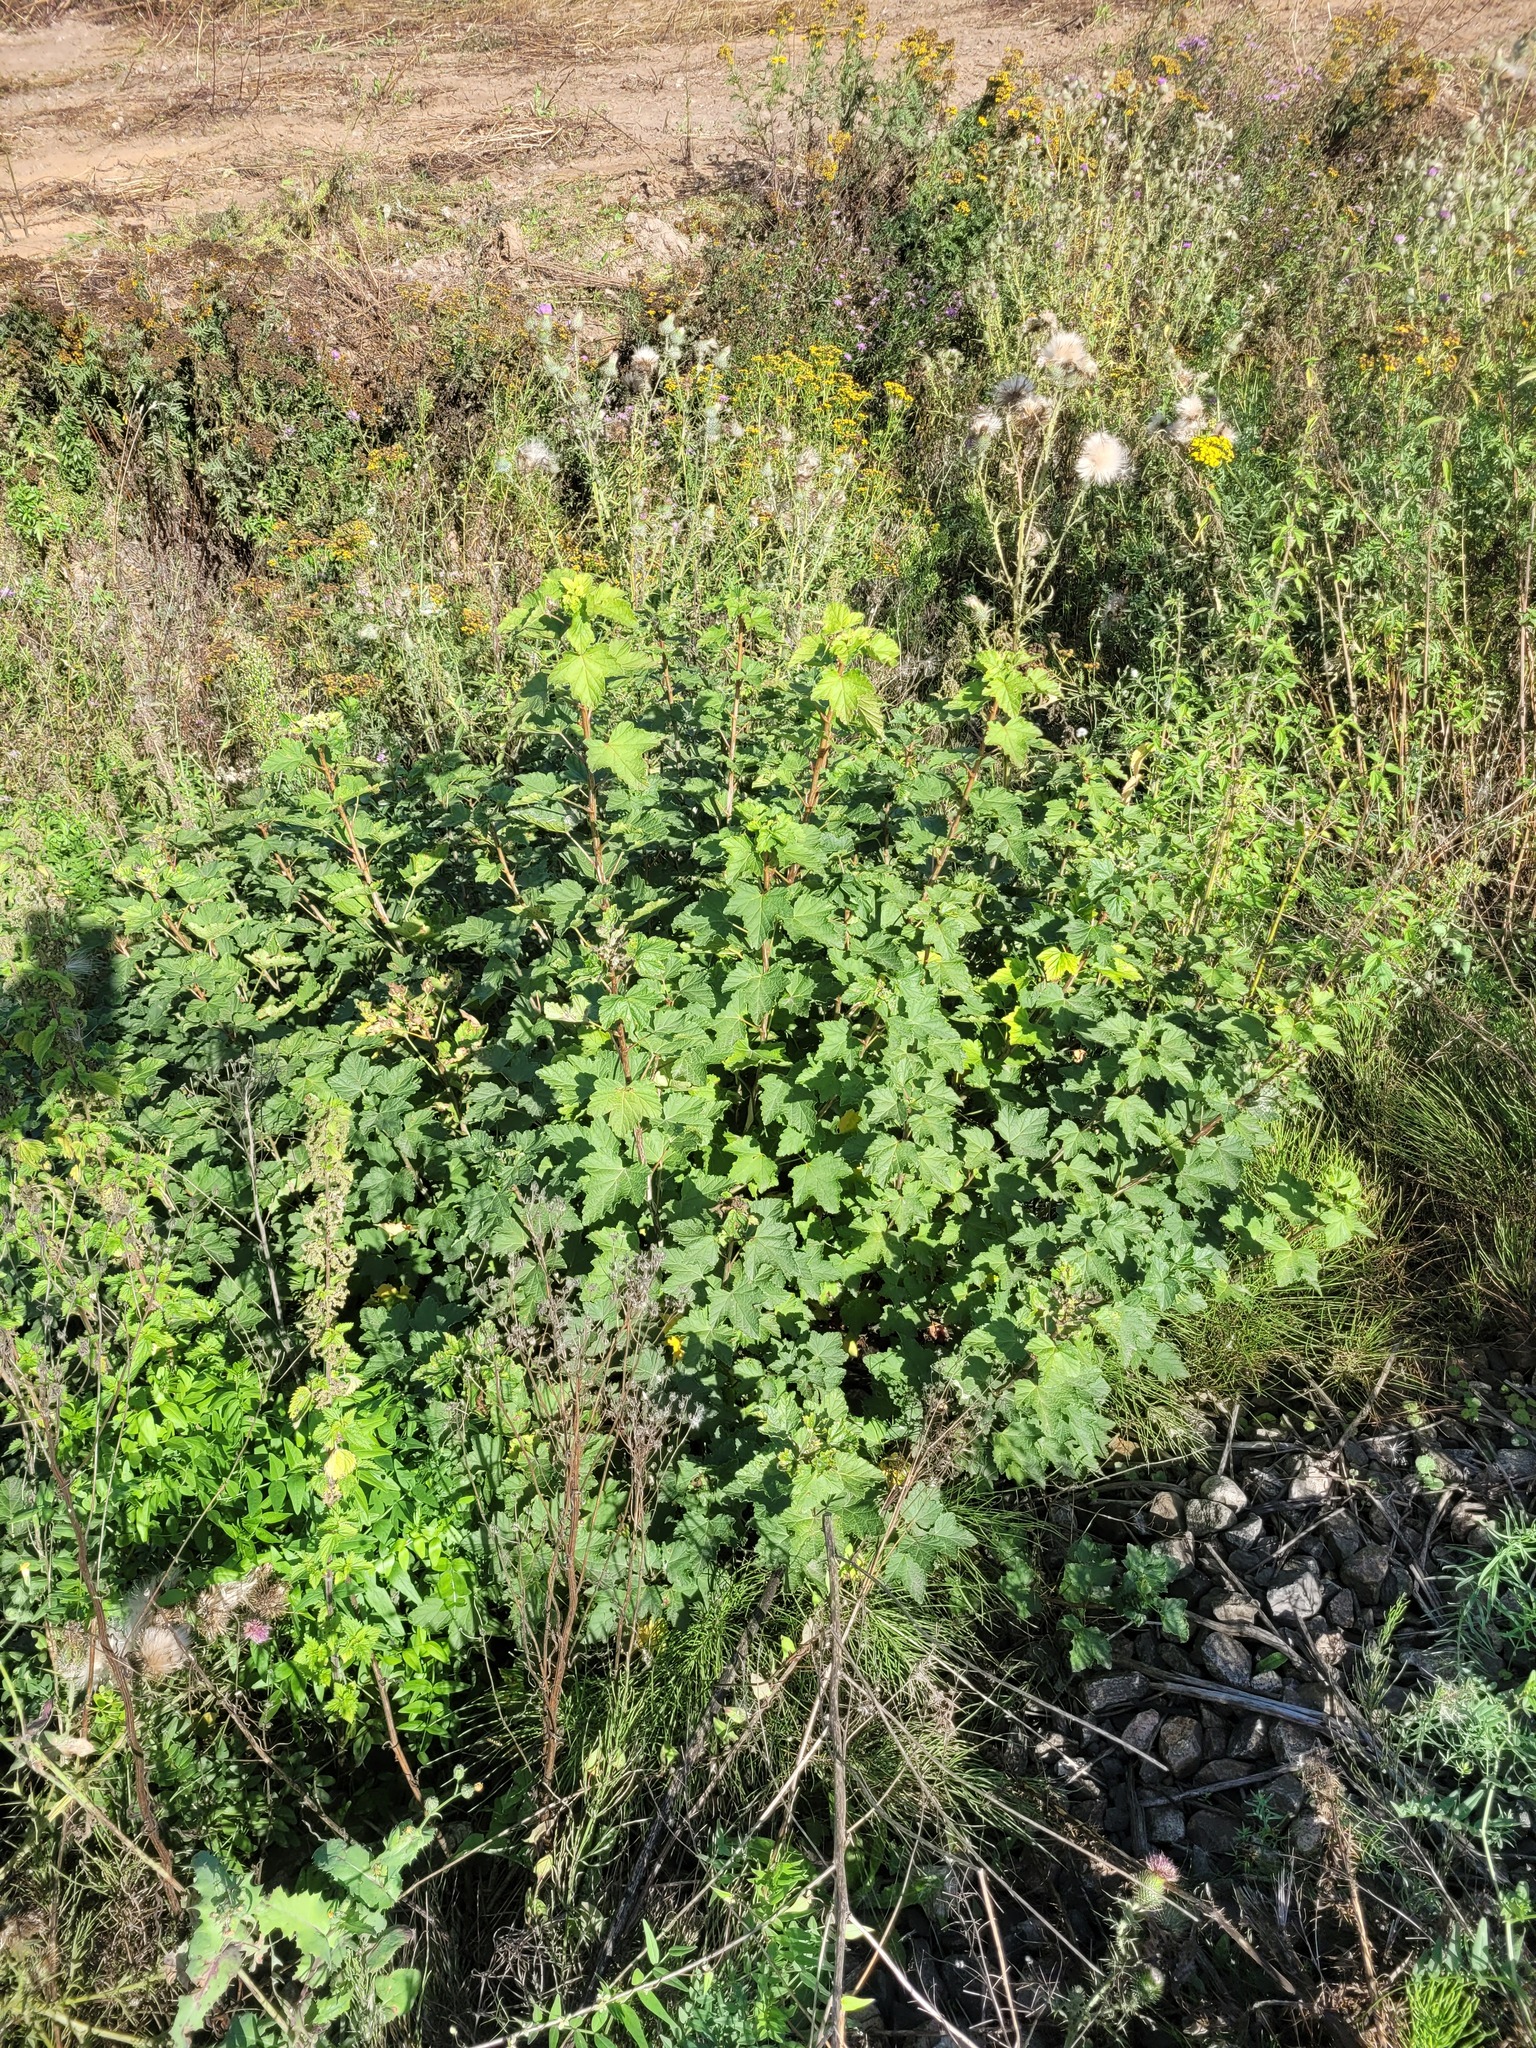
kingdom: Plantae
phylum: Tracheophyta
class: Magnoliopsida
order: Saxifragales
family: Grossulariaceae
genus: Ribes
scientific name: Ribes spicatum
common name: Downy currant
